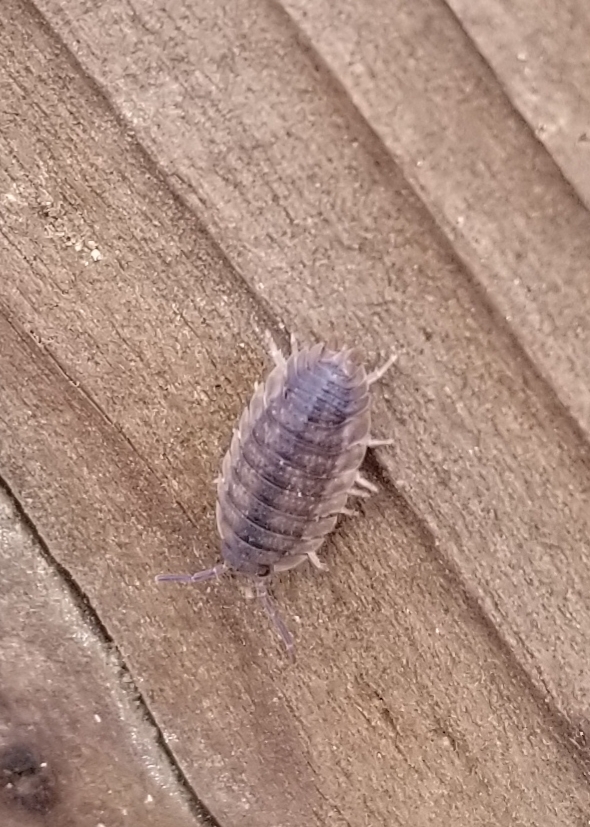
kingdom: Animalia
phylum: Arthropoda
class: Malacostraca
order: Isopoda
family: Porcellionidae
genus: Porcellio
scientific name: Porcellio scaber
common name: Common rough woodlouse
